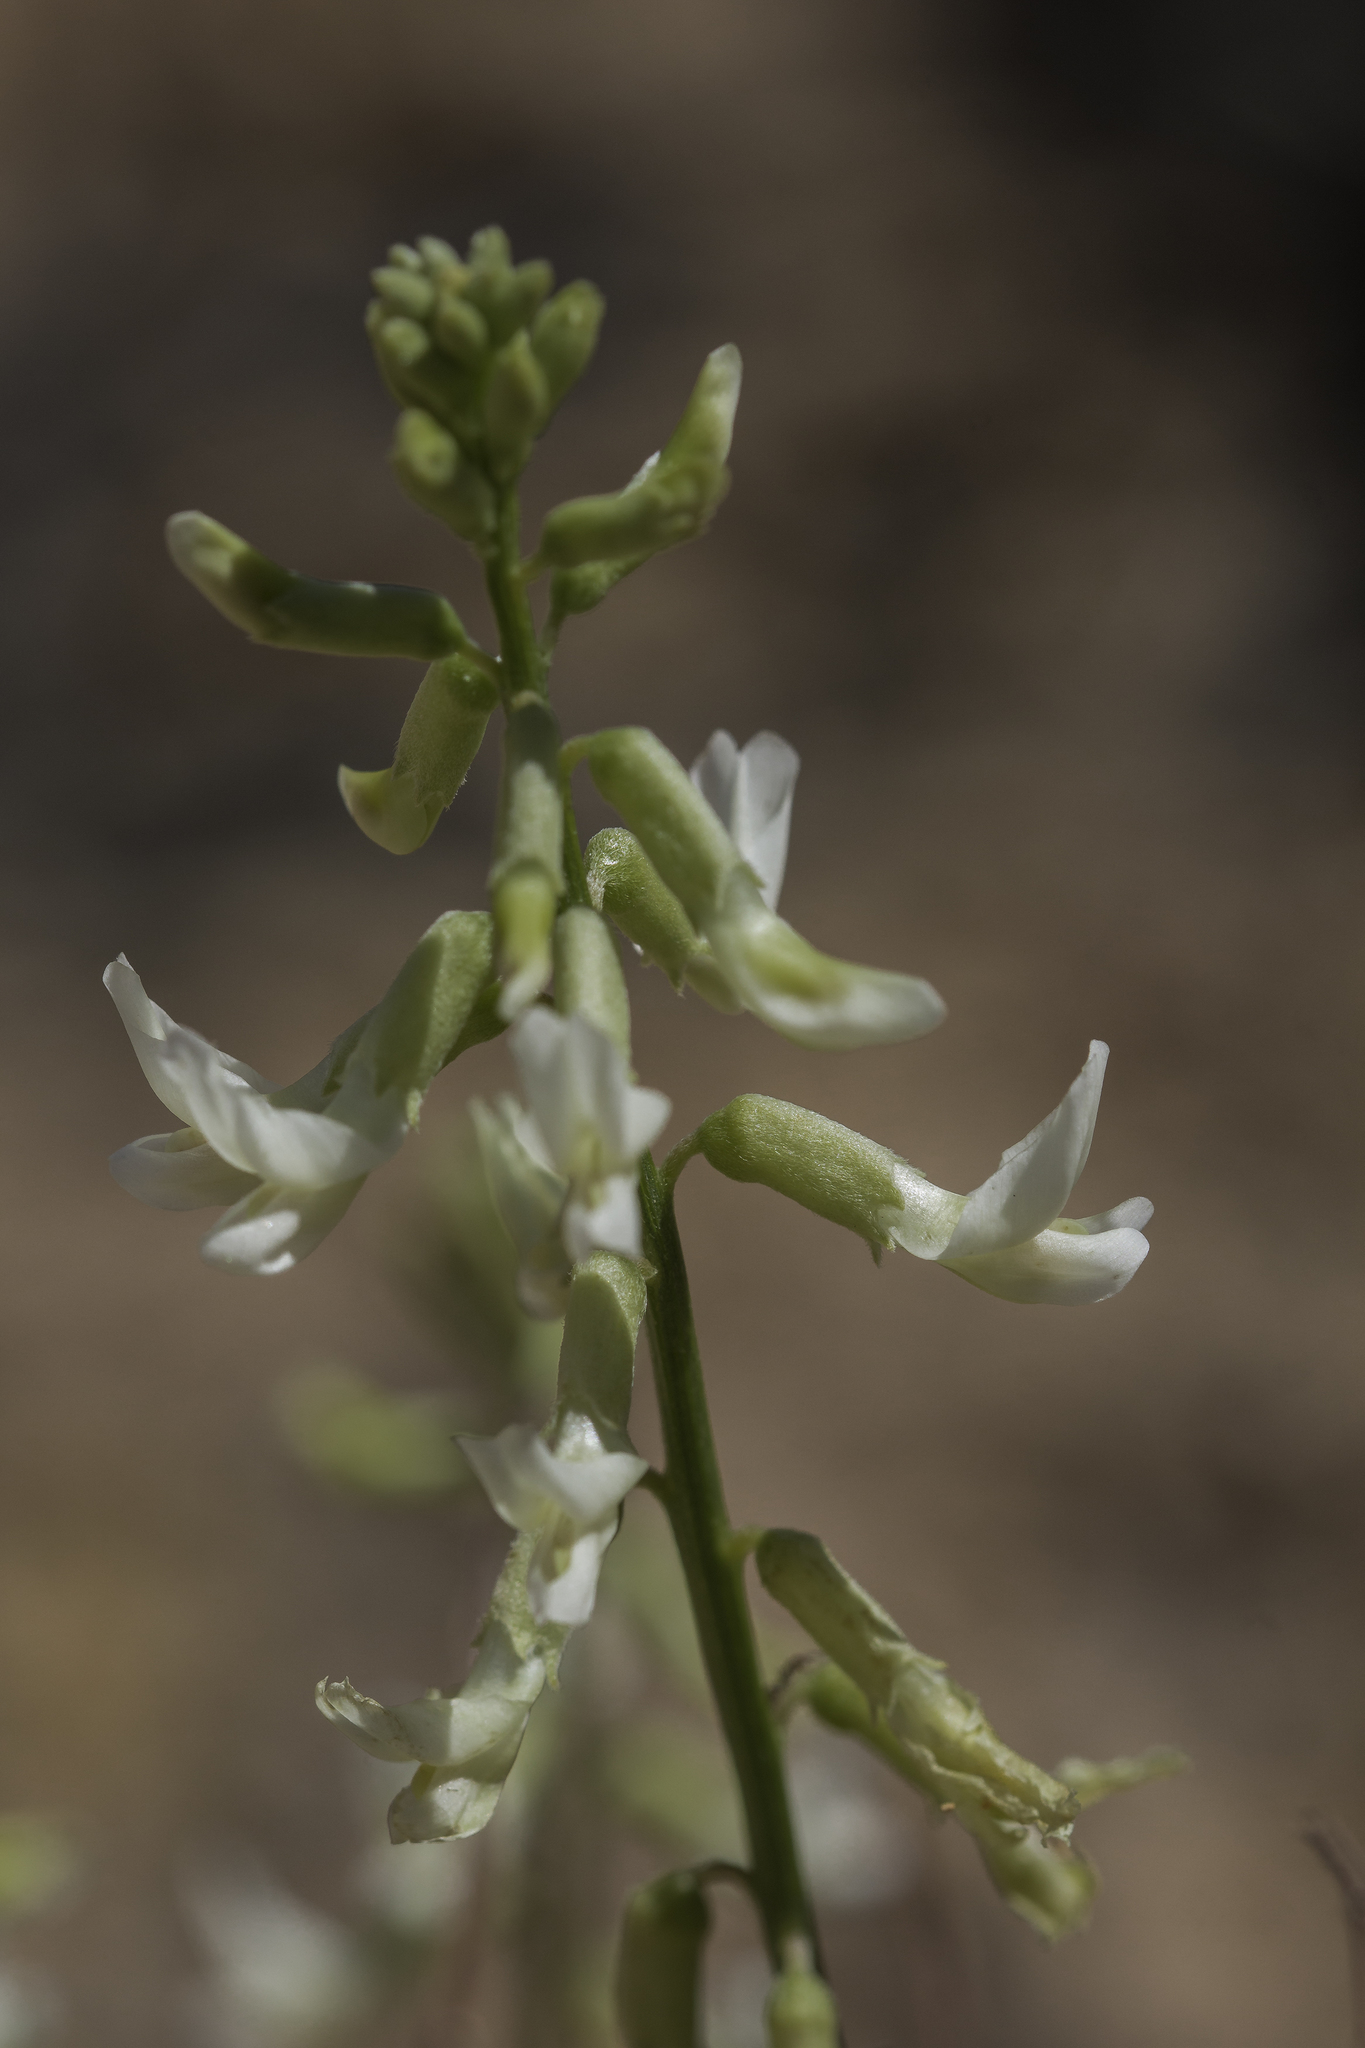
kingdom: Plantae
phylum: Tracheophyta
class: Magnoliopsida
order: Fabales
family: Fabaceae
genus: Astragalus
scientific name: Astragalus lonchocarpus
